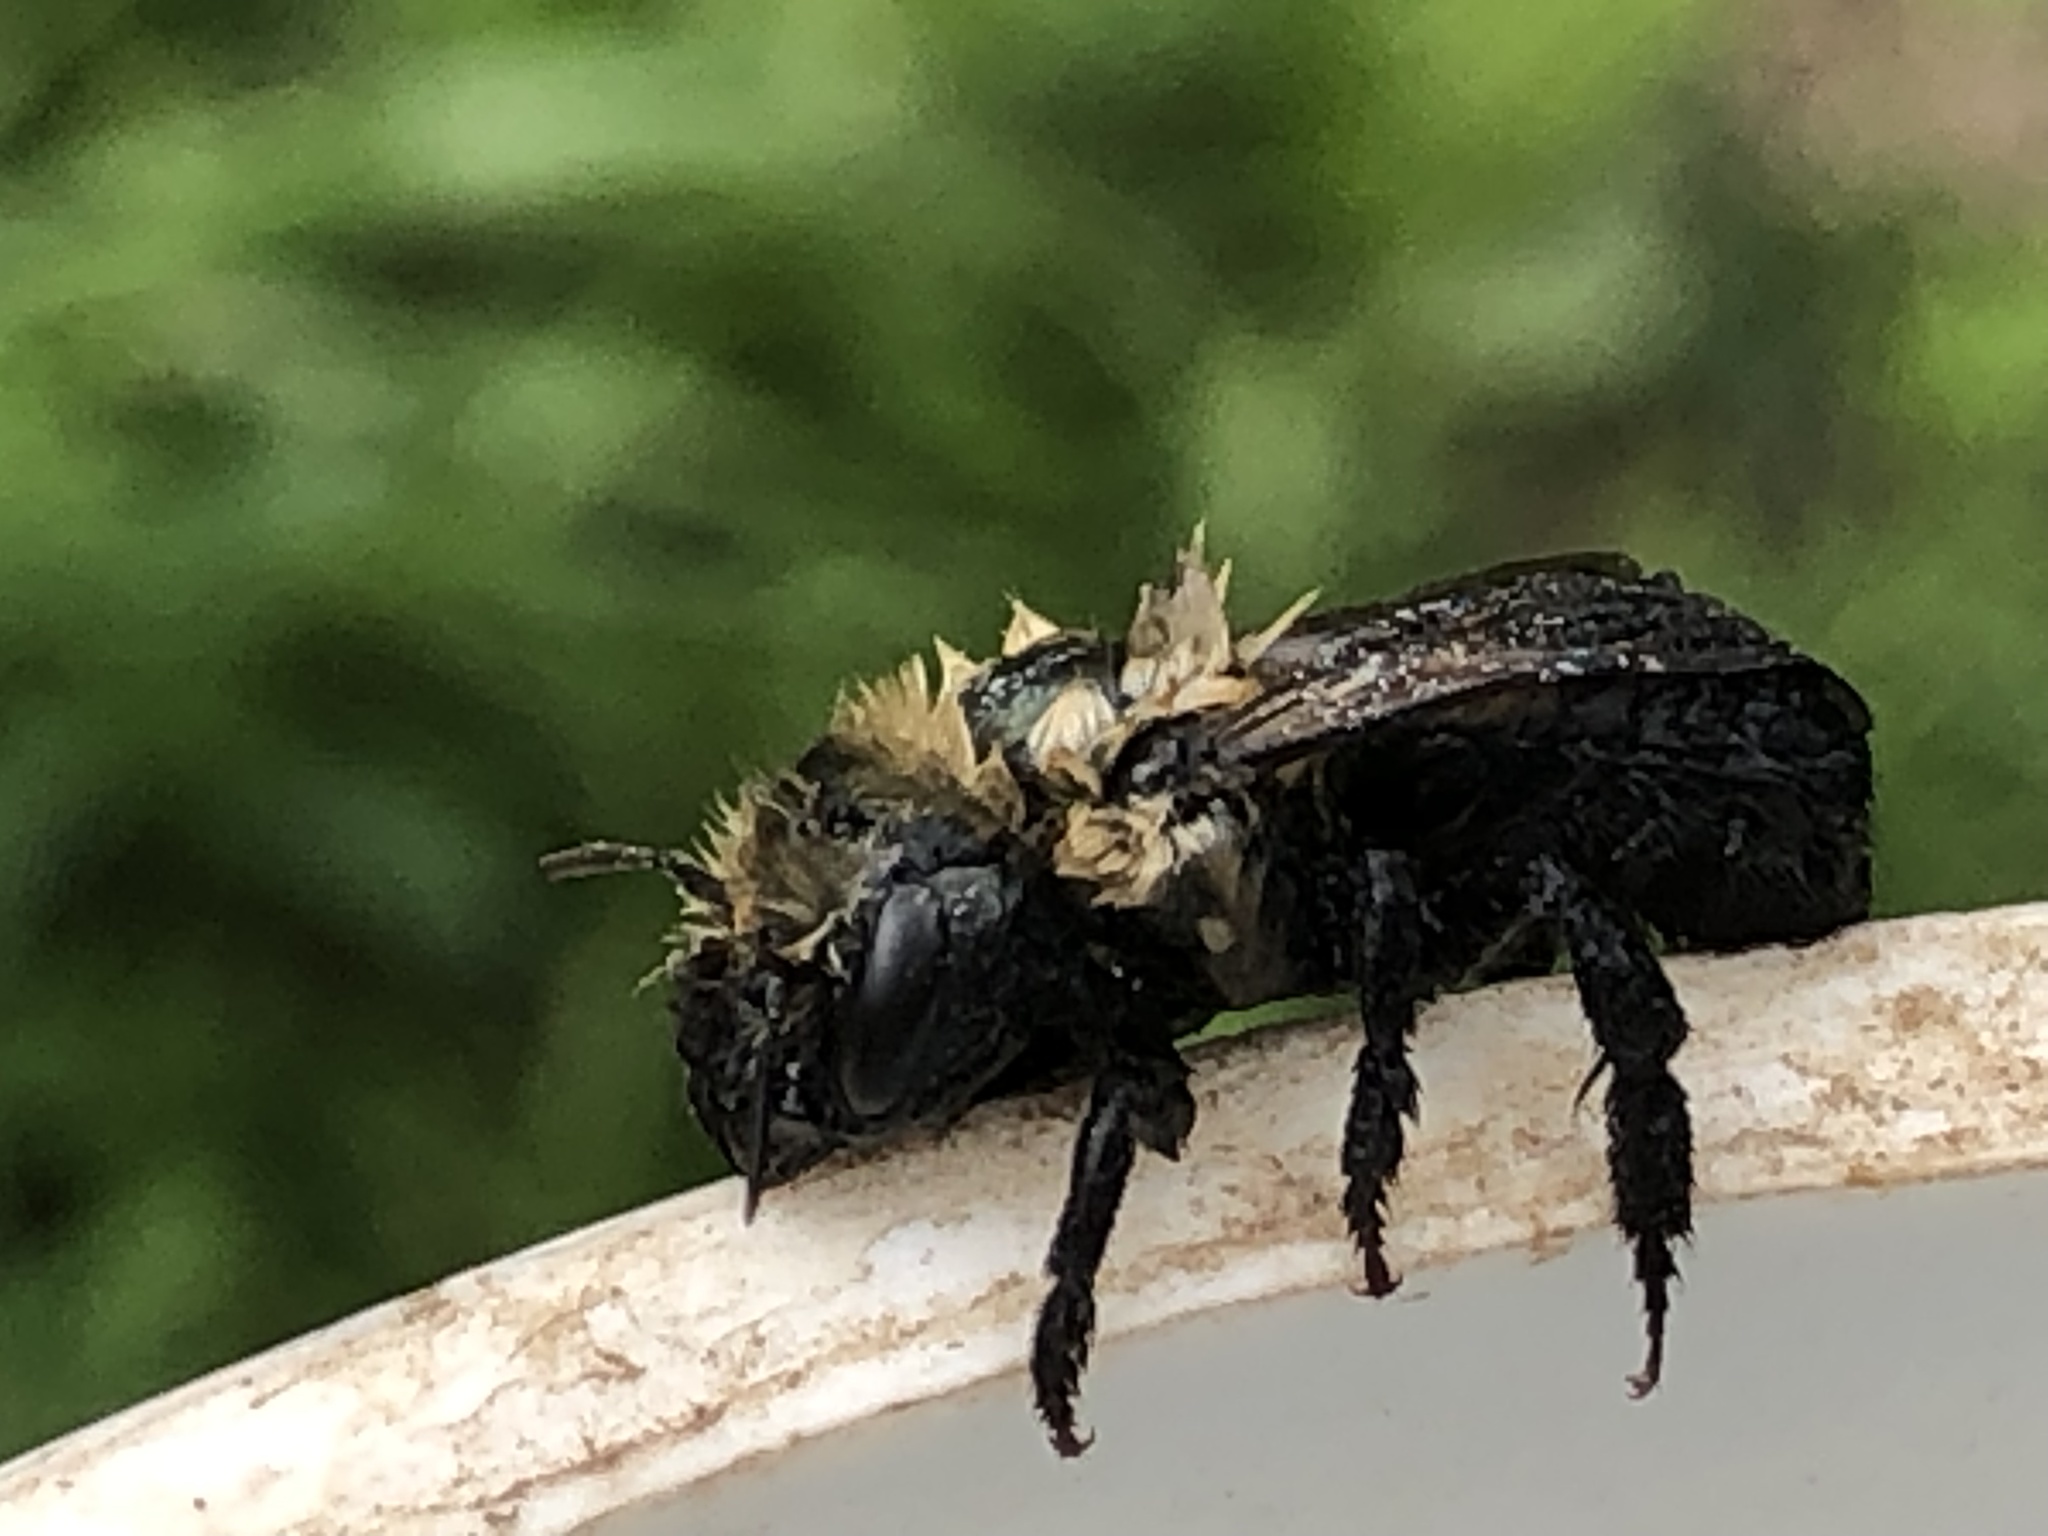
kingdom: Animalia
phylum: Arthropoda
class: Insecta
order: Hymenoptera
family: Megachilidae
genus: Osmia
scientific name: Osmia bucephala
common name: Bufflehead mason bee
